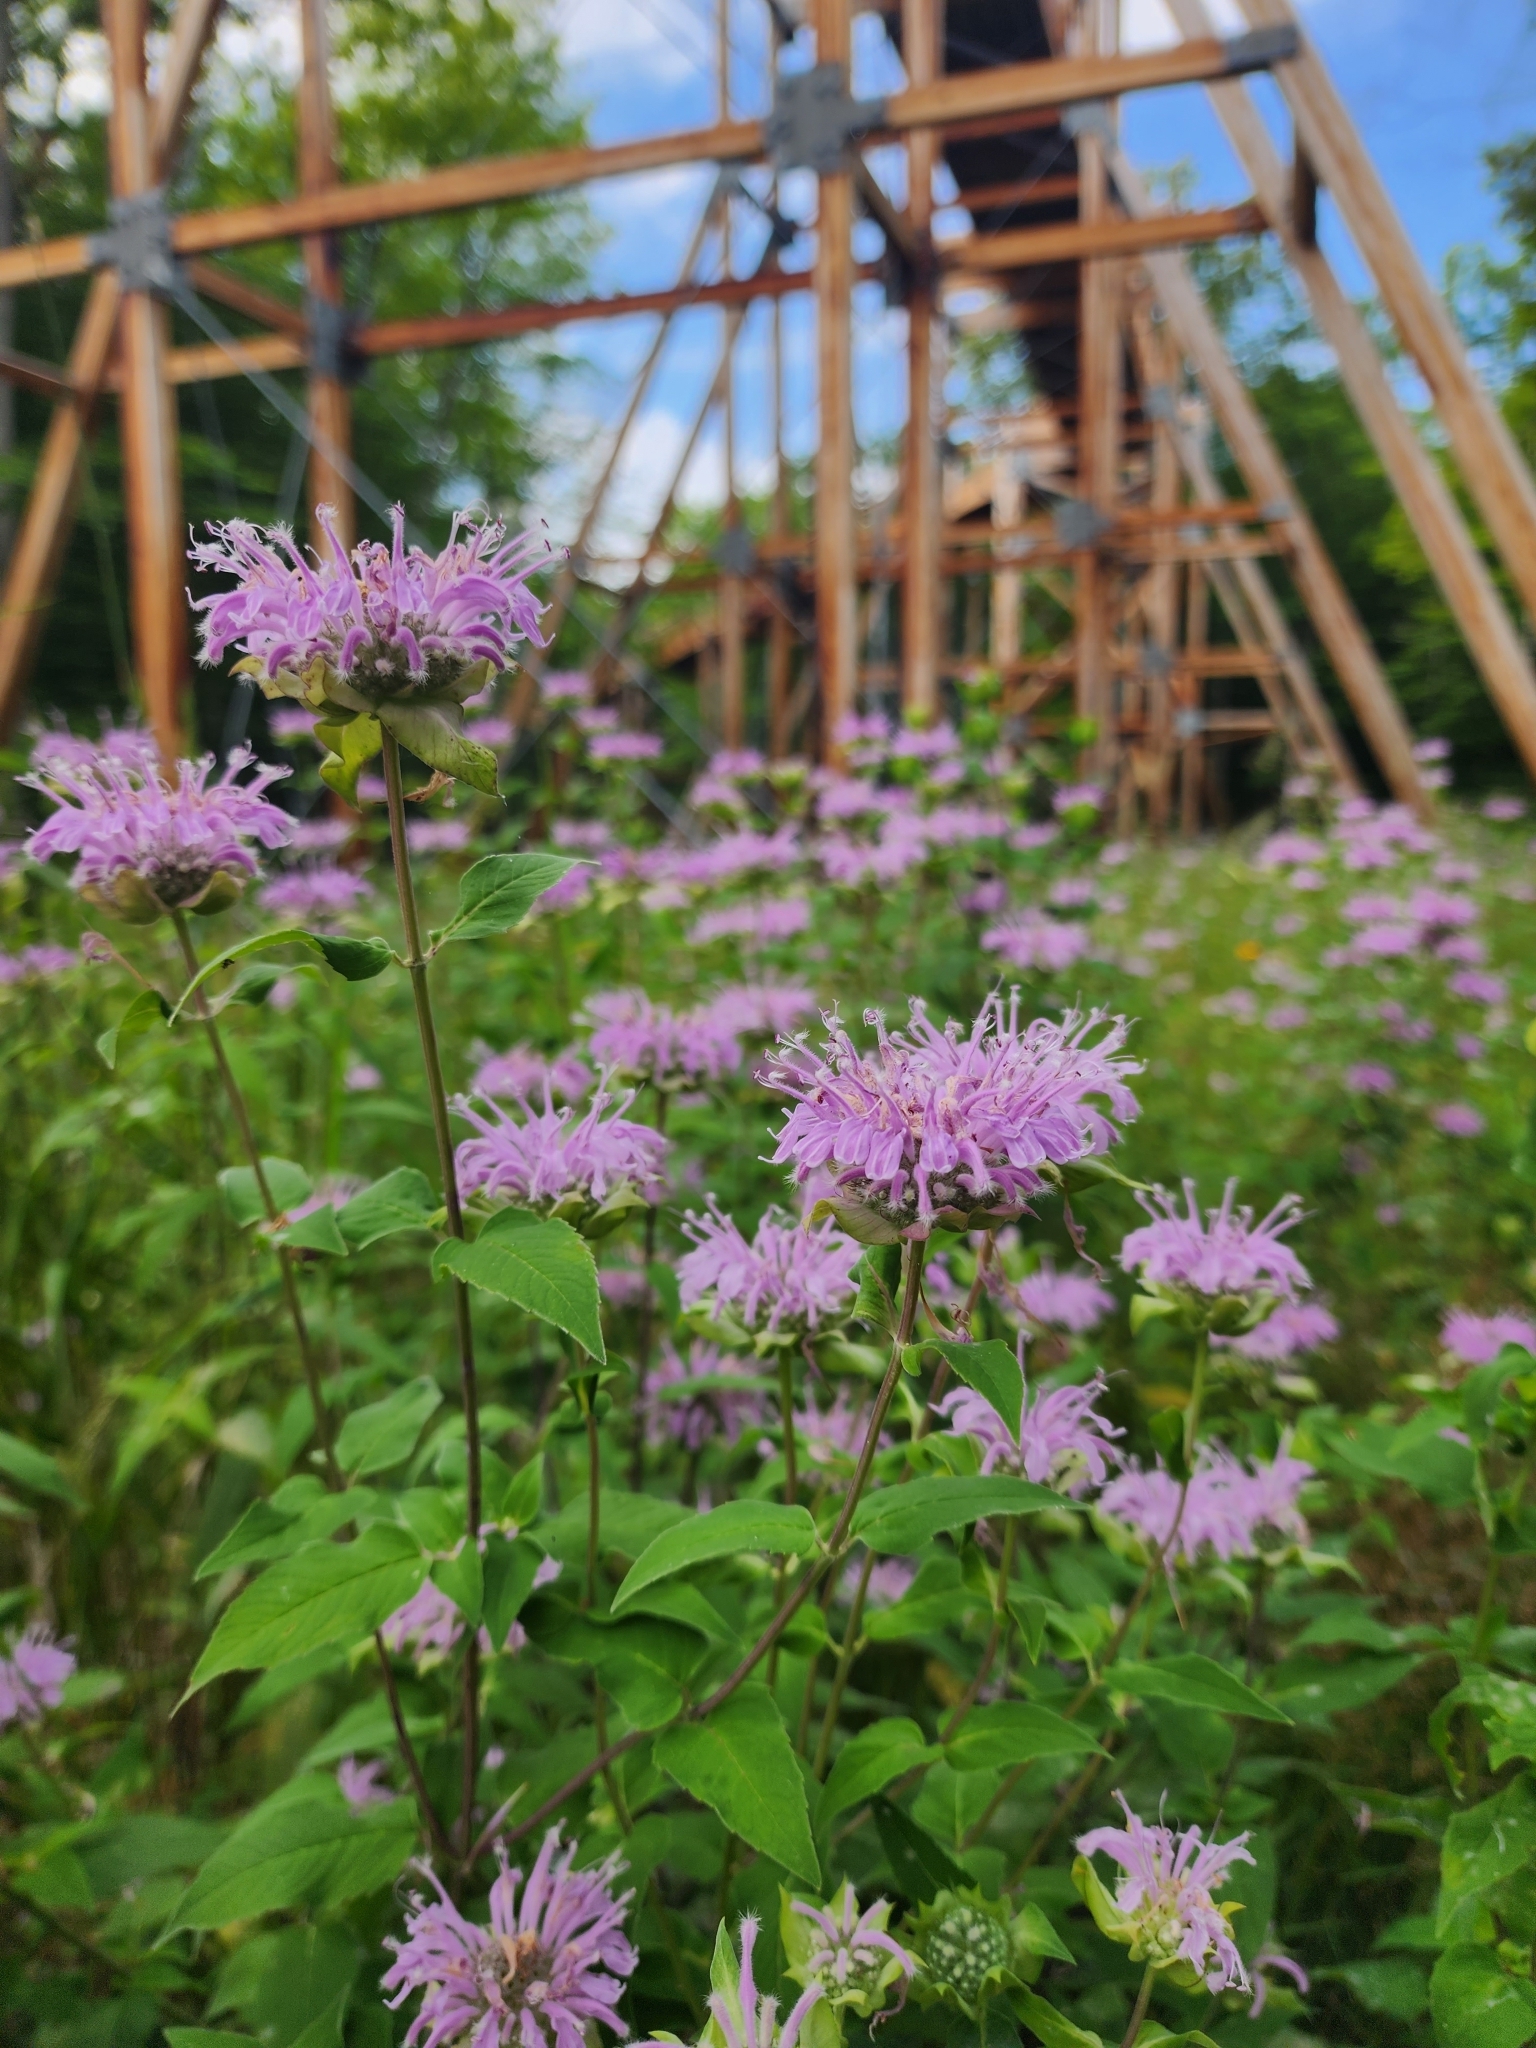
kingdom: Plantae
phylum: Tracheophyta
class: Magnoliopsida
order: Lamiales
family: Lamiaceae
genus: Monarda
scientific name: Monarda fistulosa
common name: Purple beebalm
